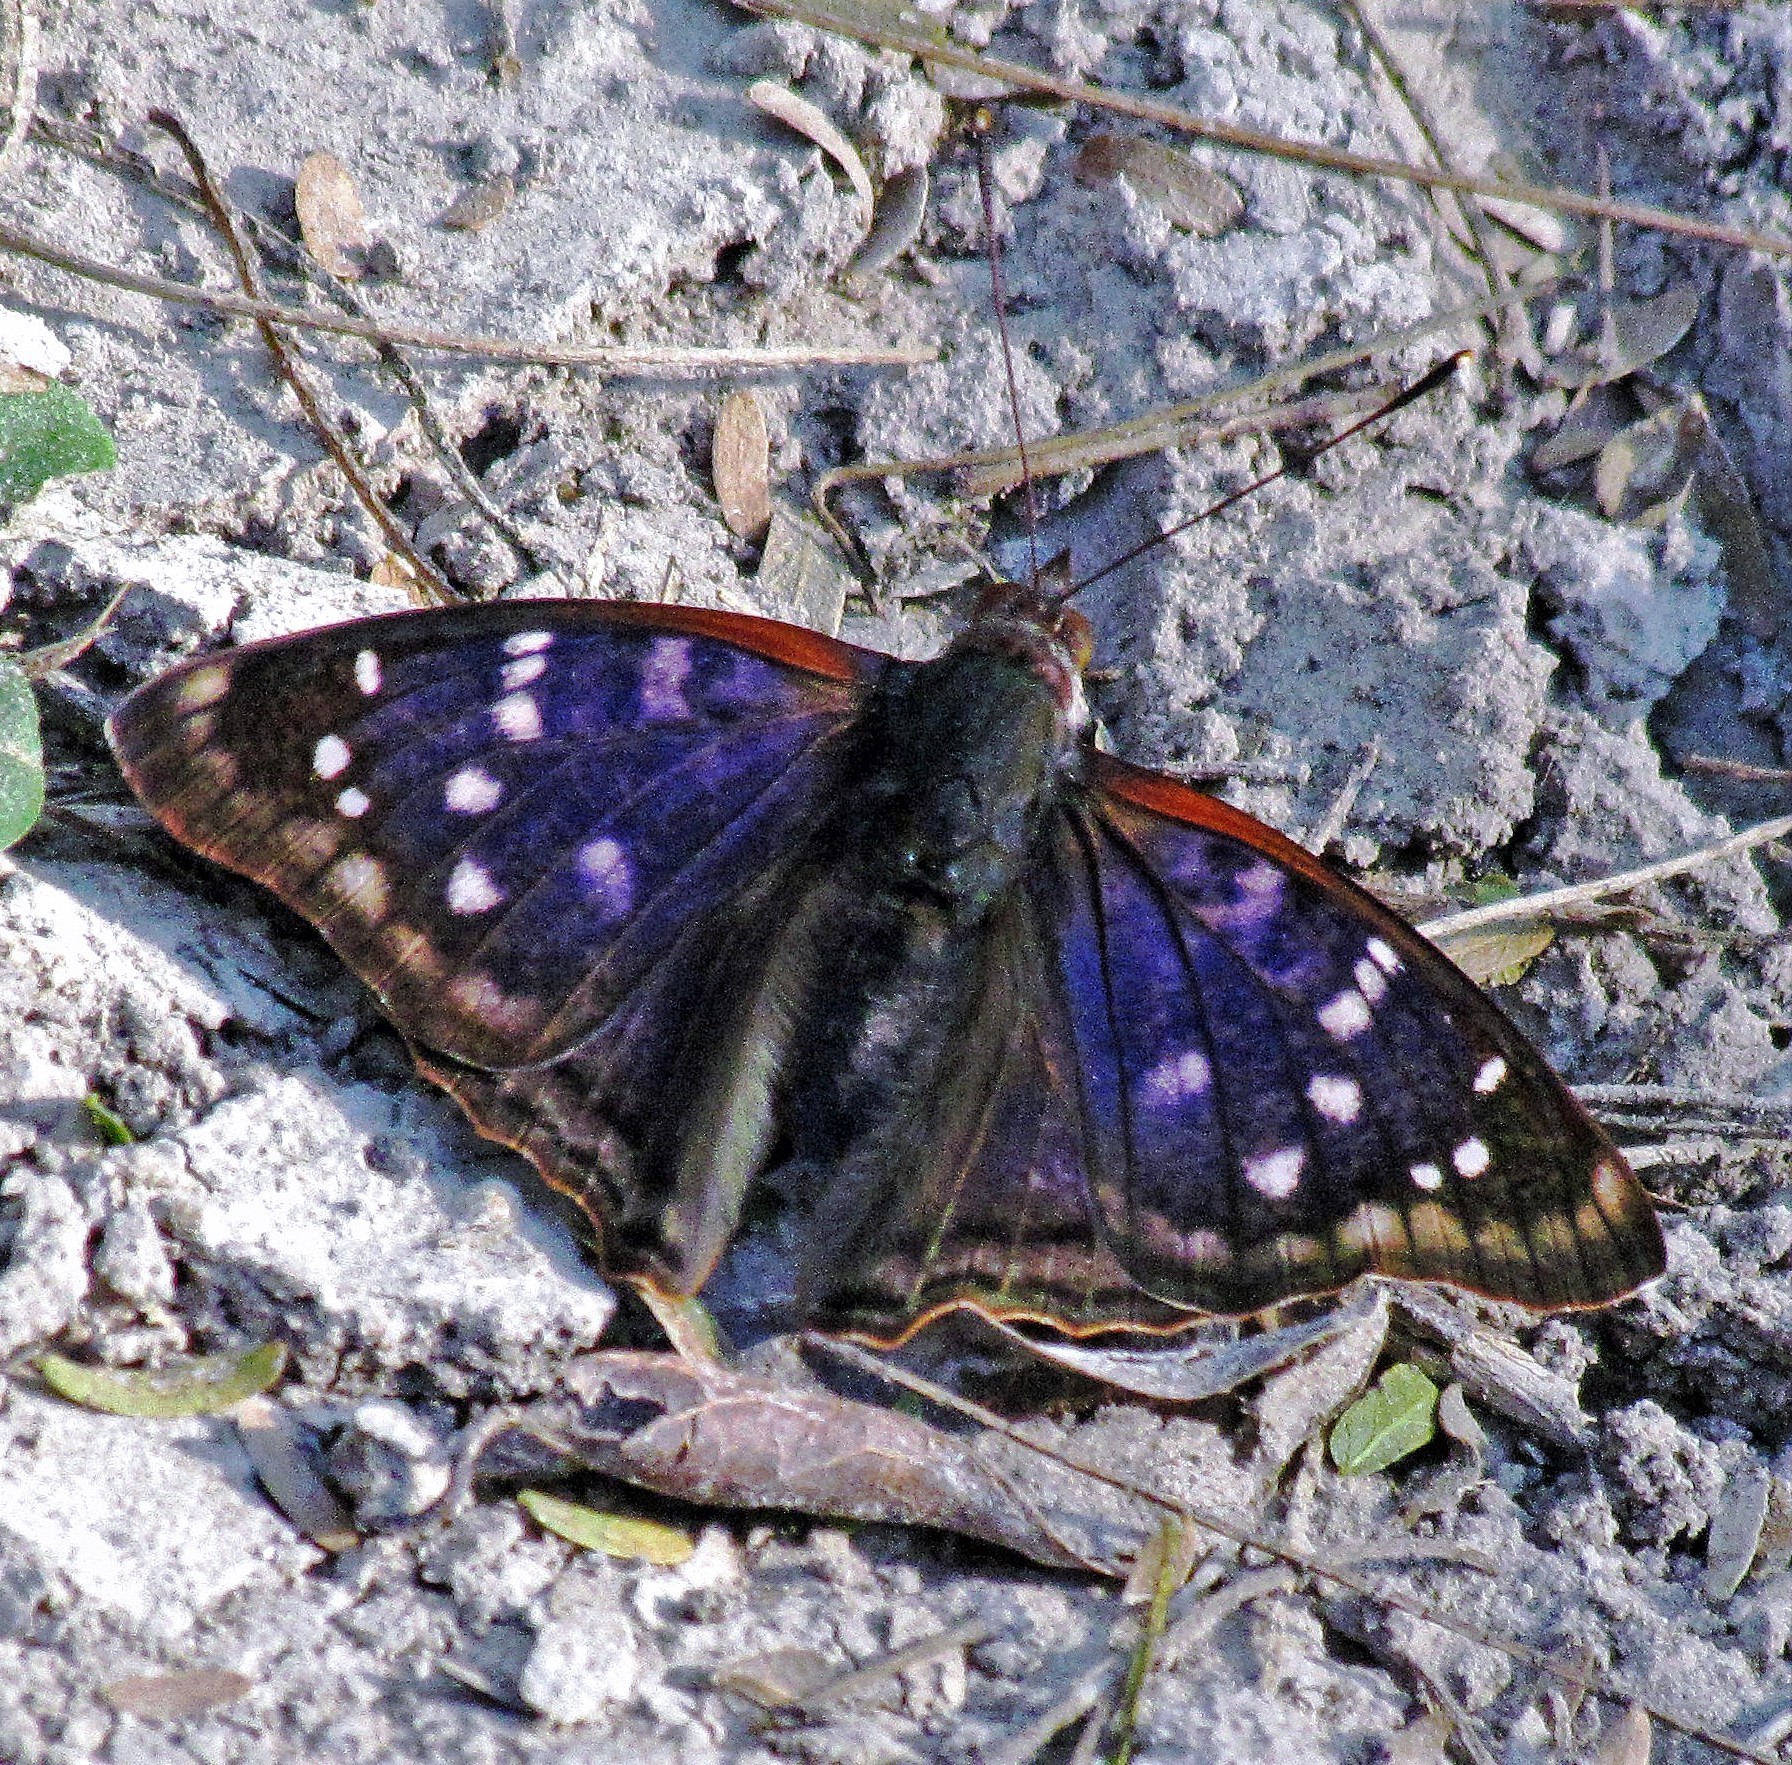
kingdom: Animalia
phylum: Arthropoda
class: Insecta
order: Lepidoptera
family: Nymphalidae
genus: Doxocopa
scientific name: Doxocopa kallina
